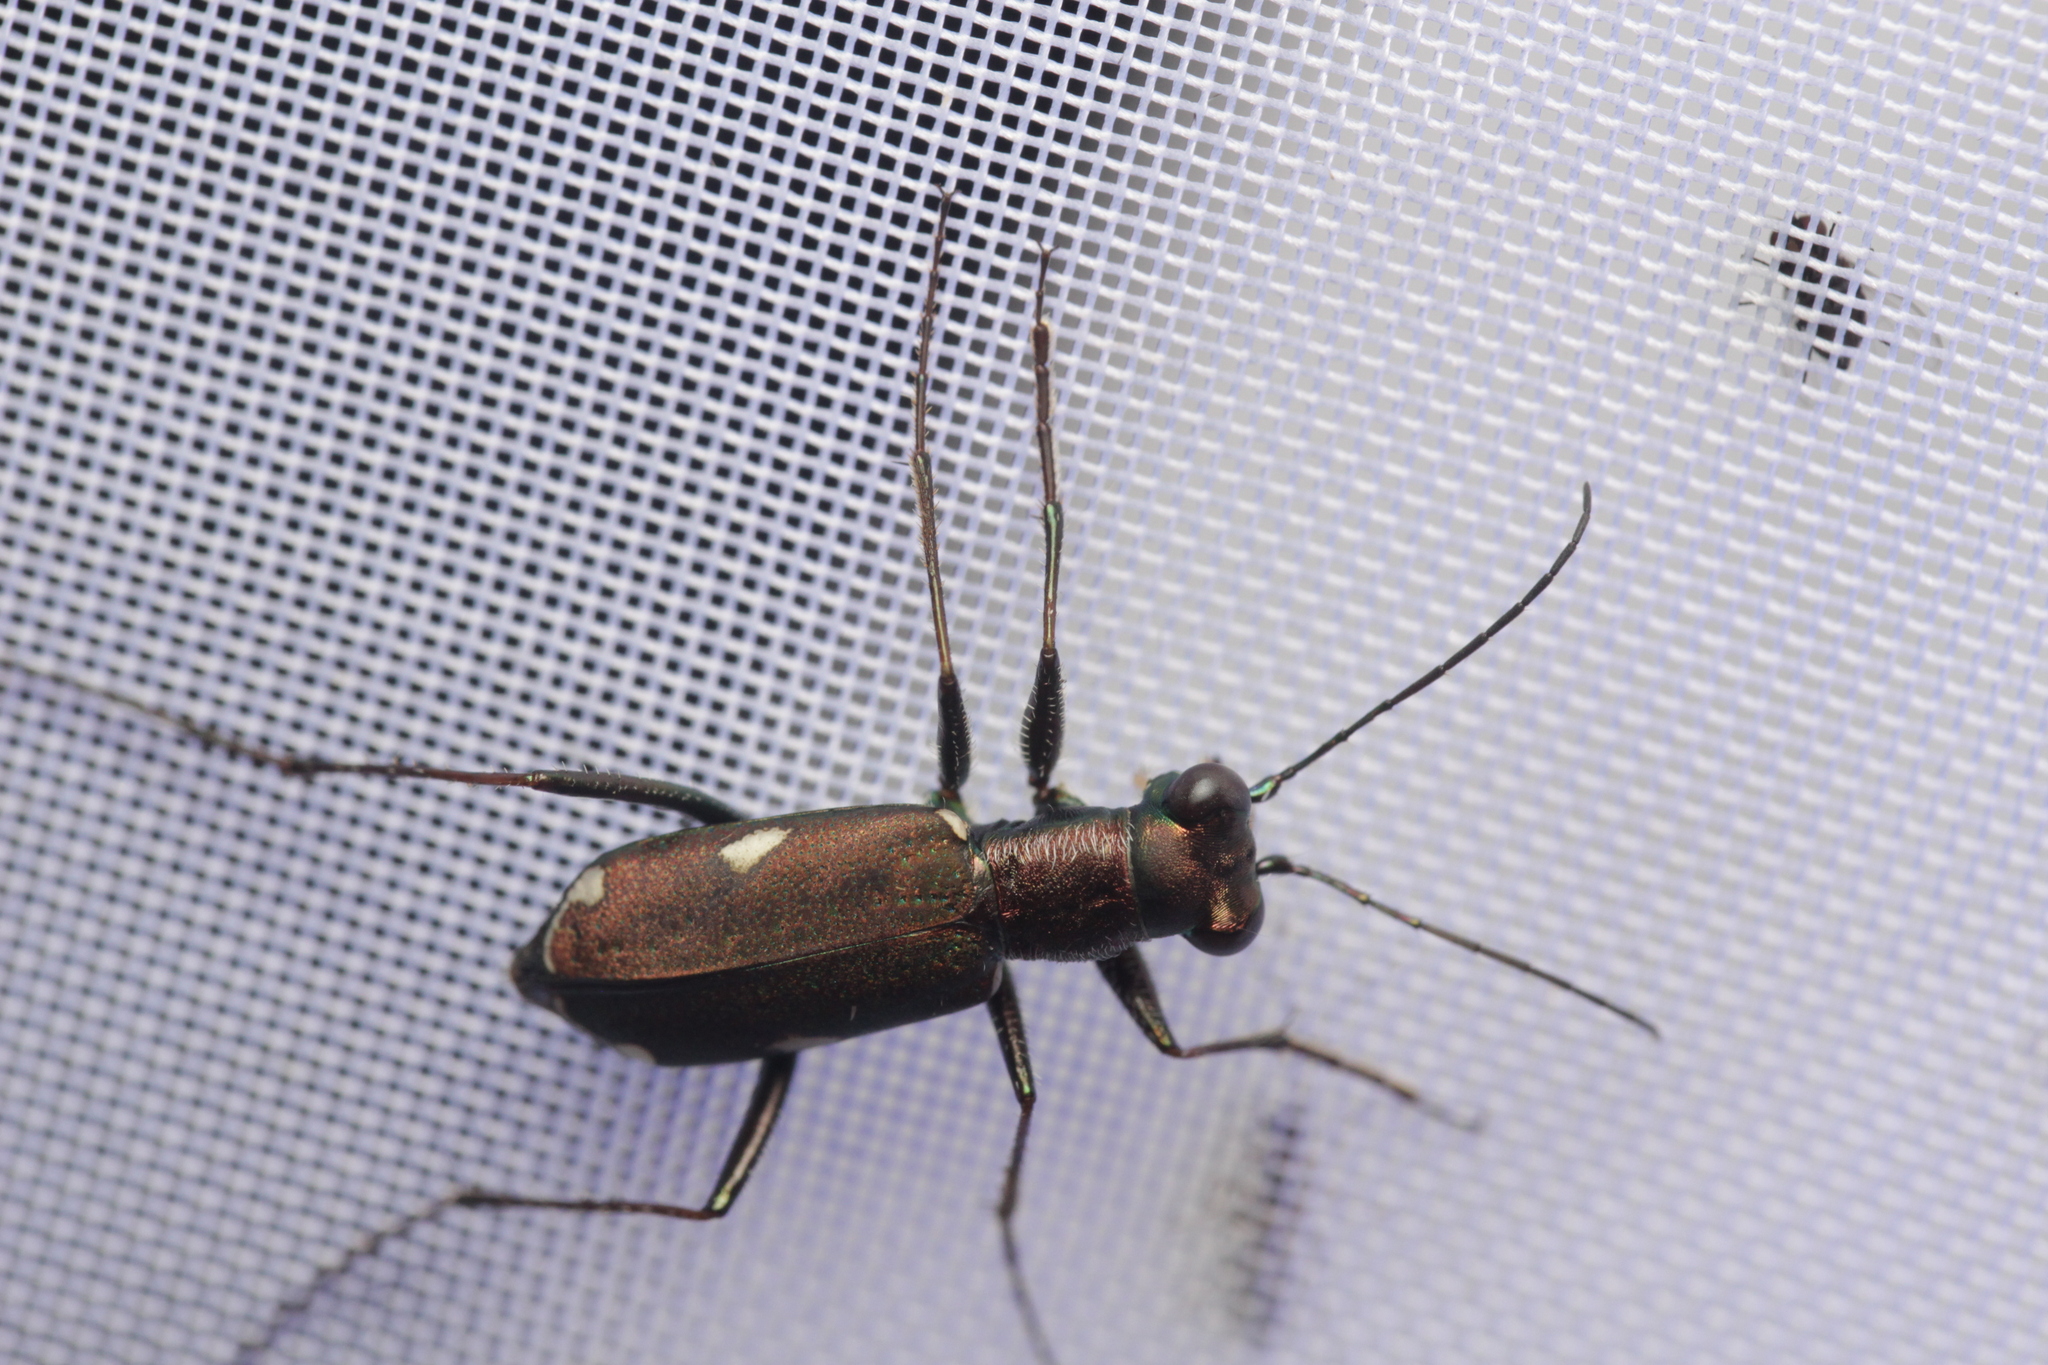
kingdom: Animalia
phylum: Arthropoda
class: Insecta
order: Coleoptera
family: Carabidae
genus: Cylindera
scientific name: Cylindera germanica
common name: Cliff tiger beetle
